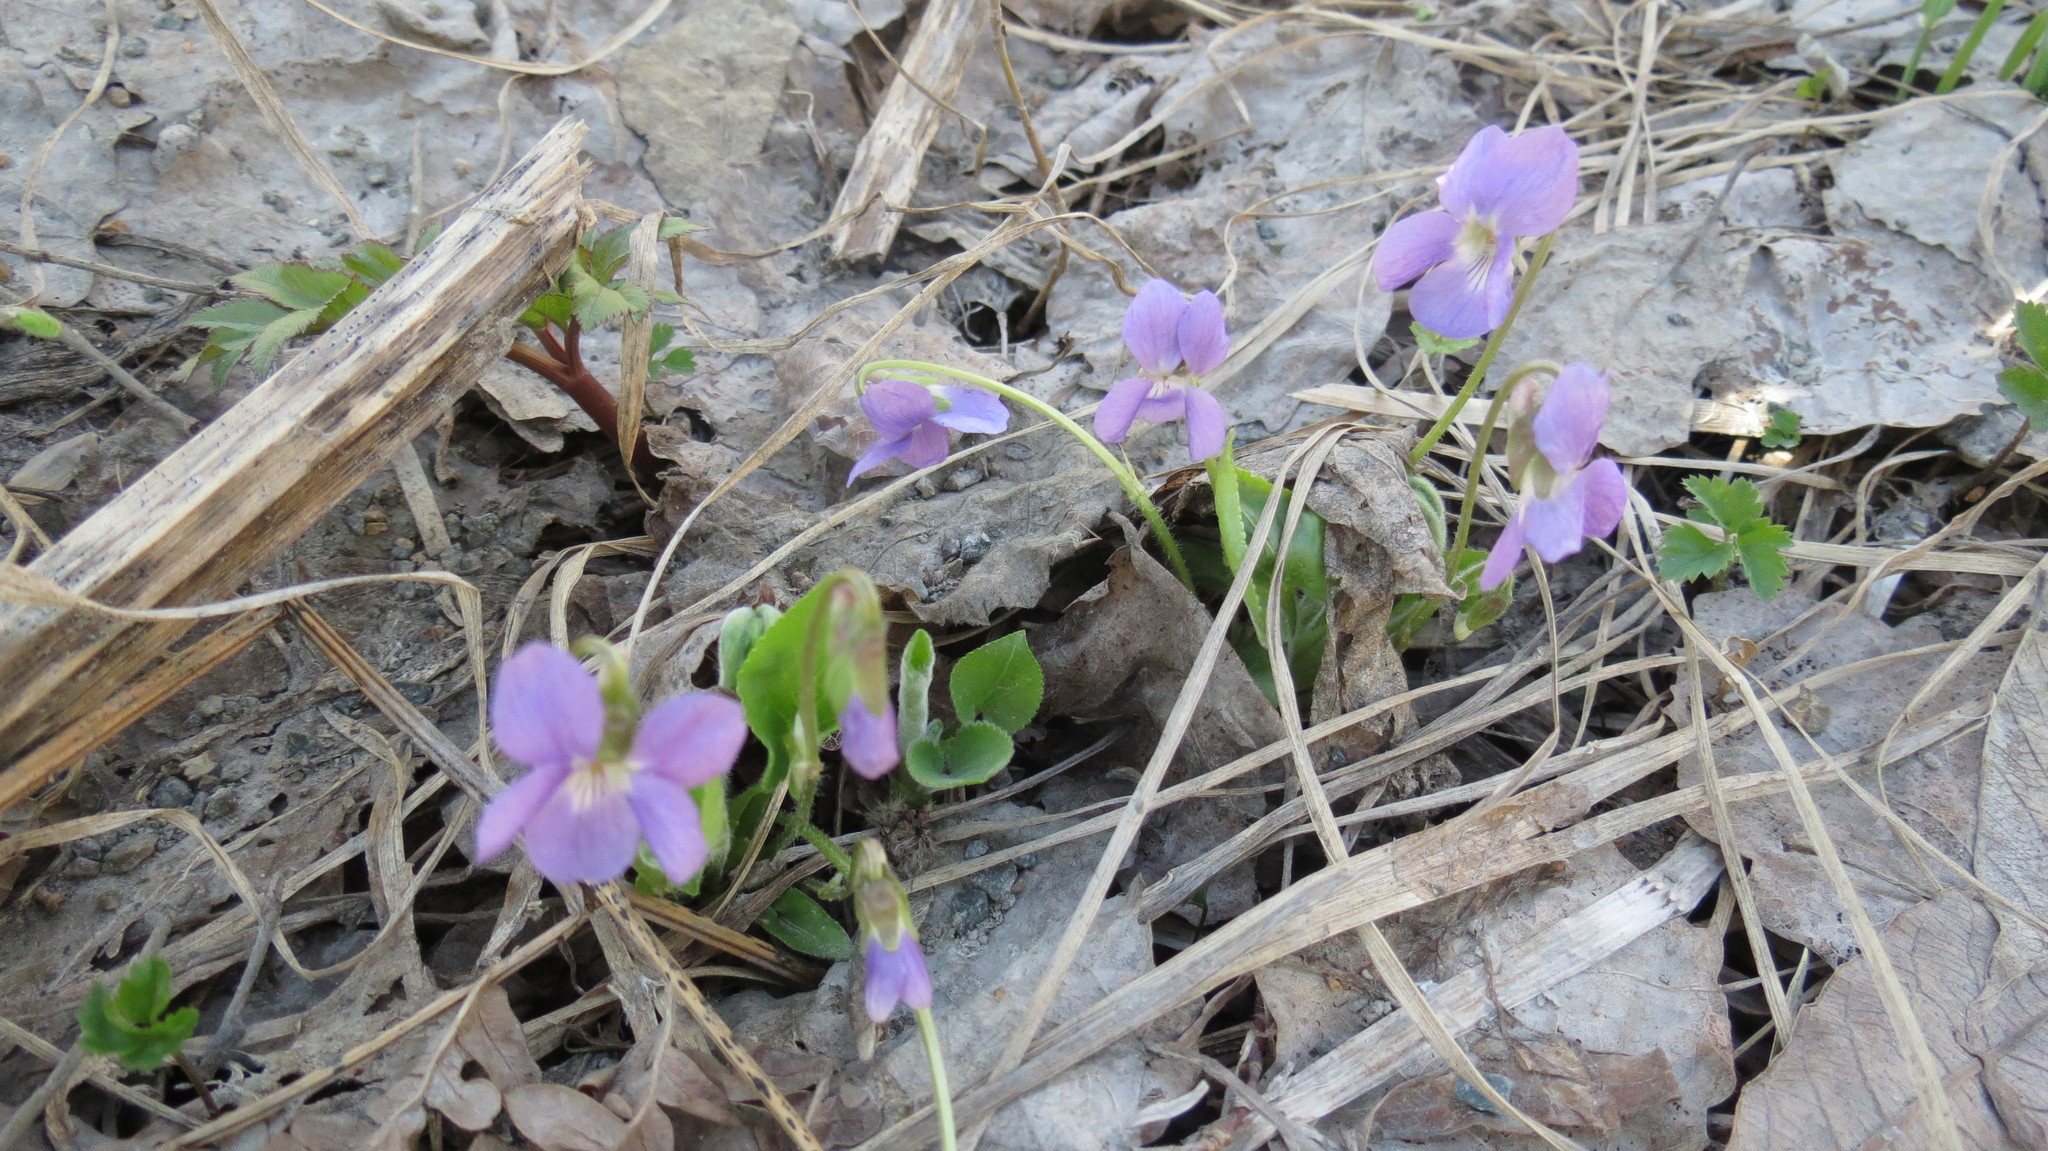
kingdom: Plantae
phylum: Tracheophyta
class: Magnoliopsida
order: Malpighiales
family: Violaceae
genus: Viola
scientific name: Viola hirta
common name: Hairy violet
